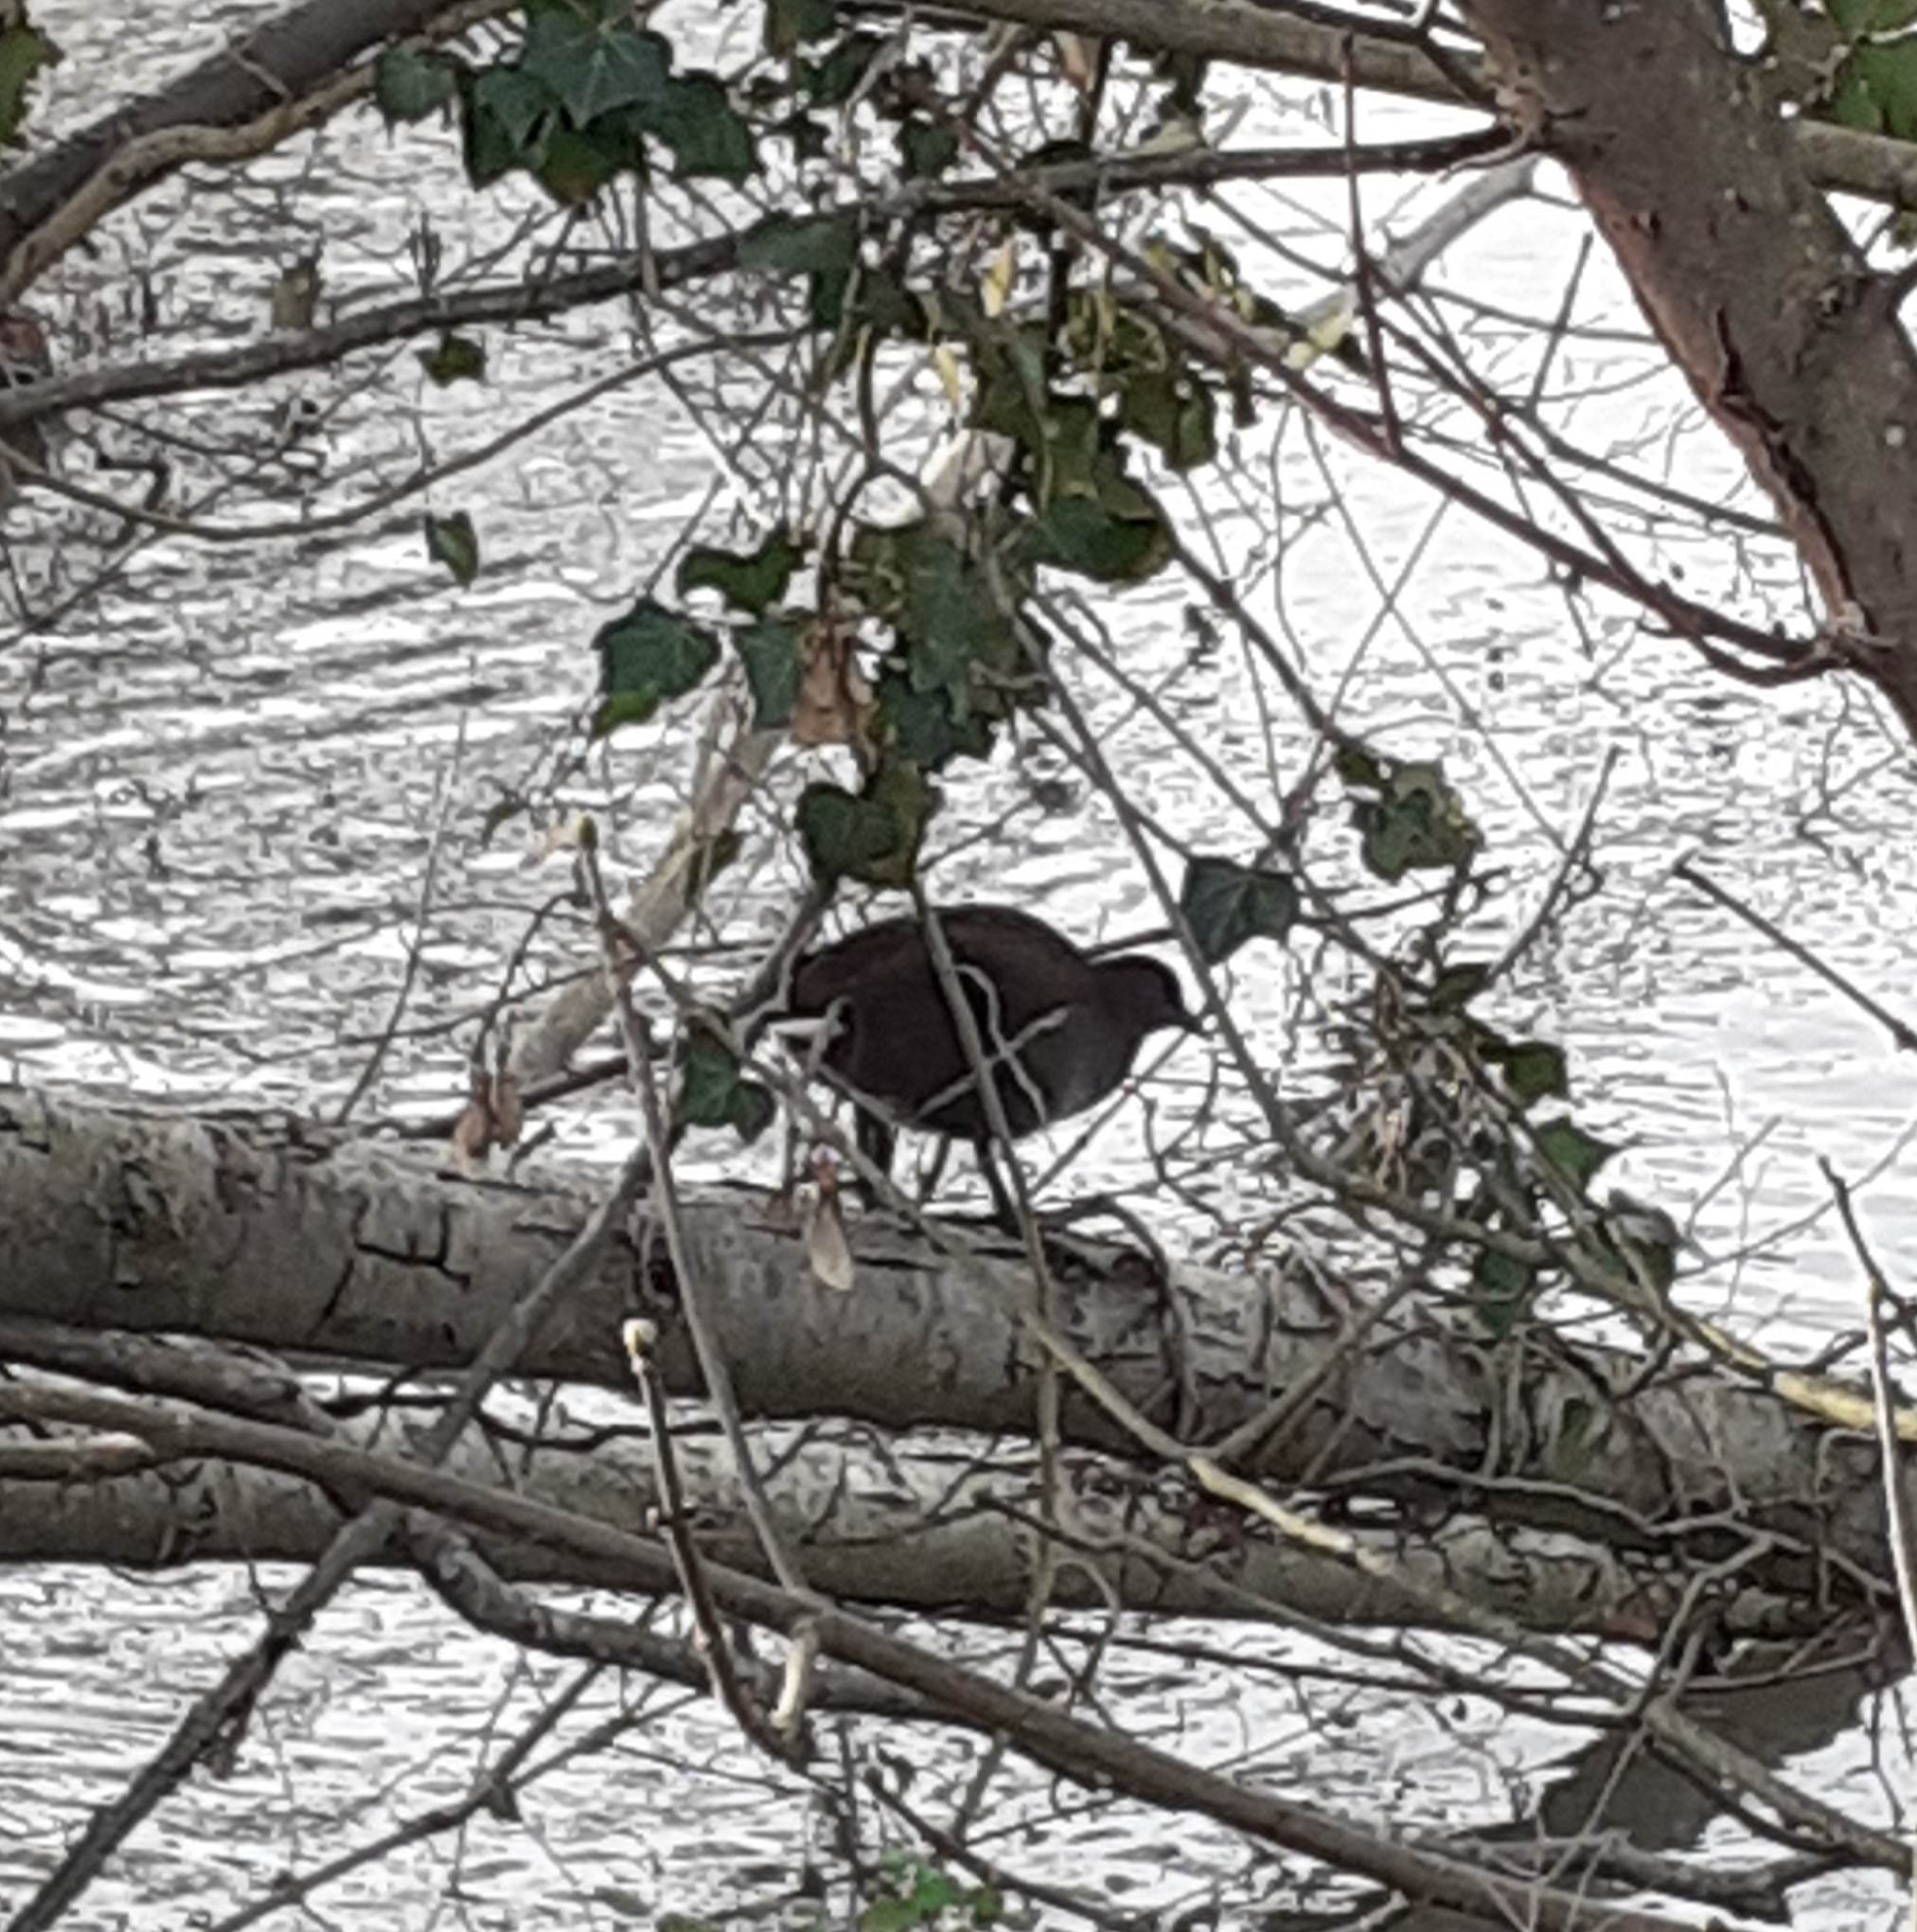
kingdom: Animalia
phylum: Chordata
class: Aves
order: Gruiformes
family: Rallidae
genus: Gallinula
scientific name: Gallinula chloropus
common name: Common moorhen
